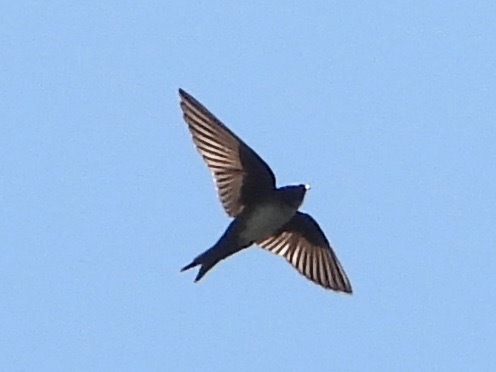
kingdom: Animalia
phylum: Chordata
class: Aves
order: Passeriformes
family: Hirundinidae
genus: Notiochelidon
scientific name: Notiochelidon pileata
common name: Black-capped swallow
